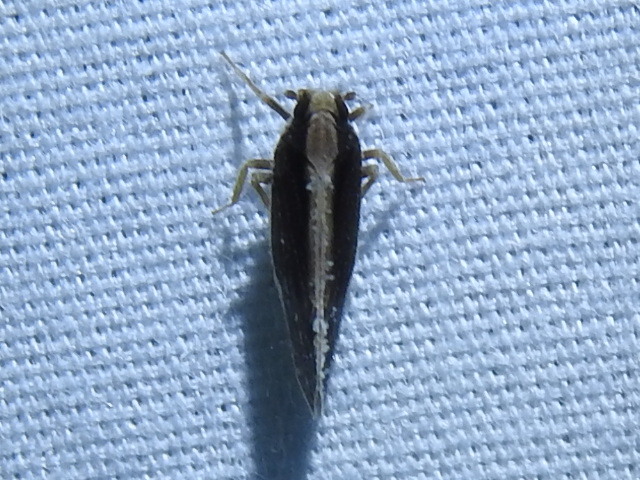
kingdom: Animalia
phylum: Arthropoda
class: Insecta
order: Hemiptera
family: Cixiidae
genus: Pintalia
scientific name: Pintalia delicata
